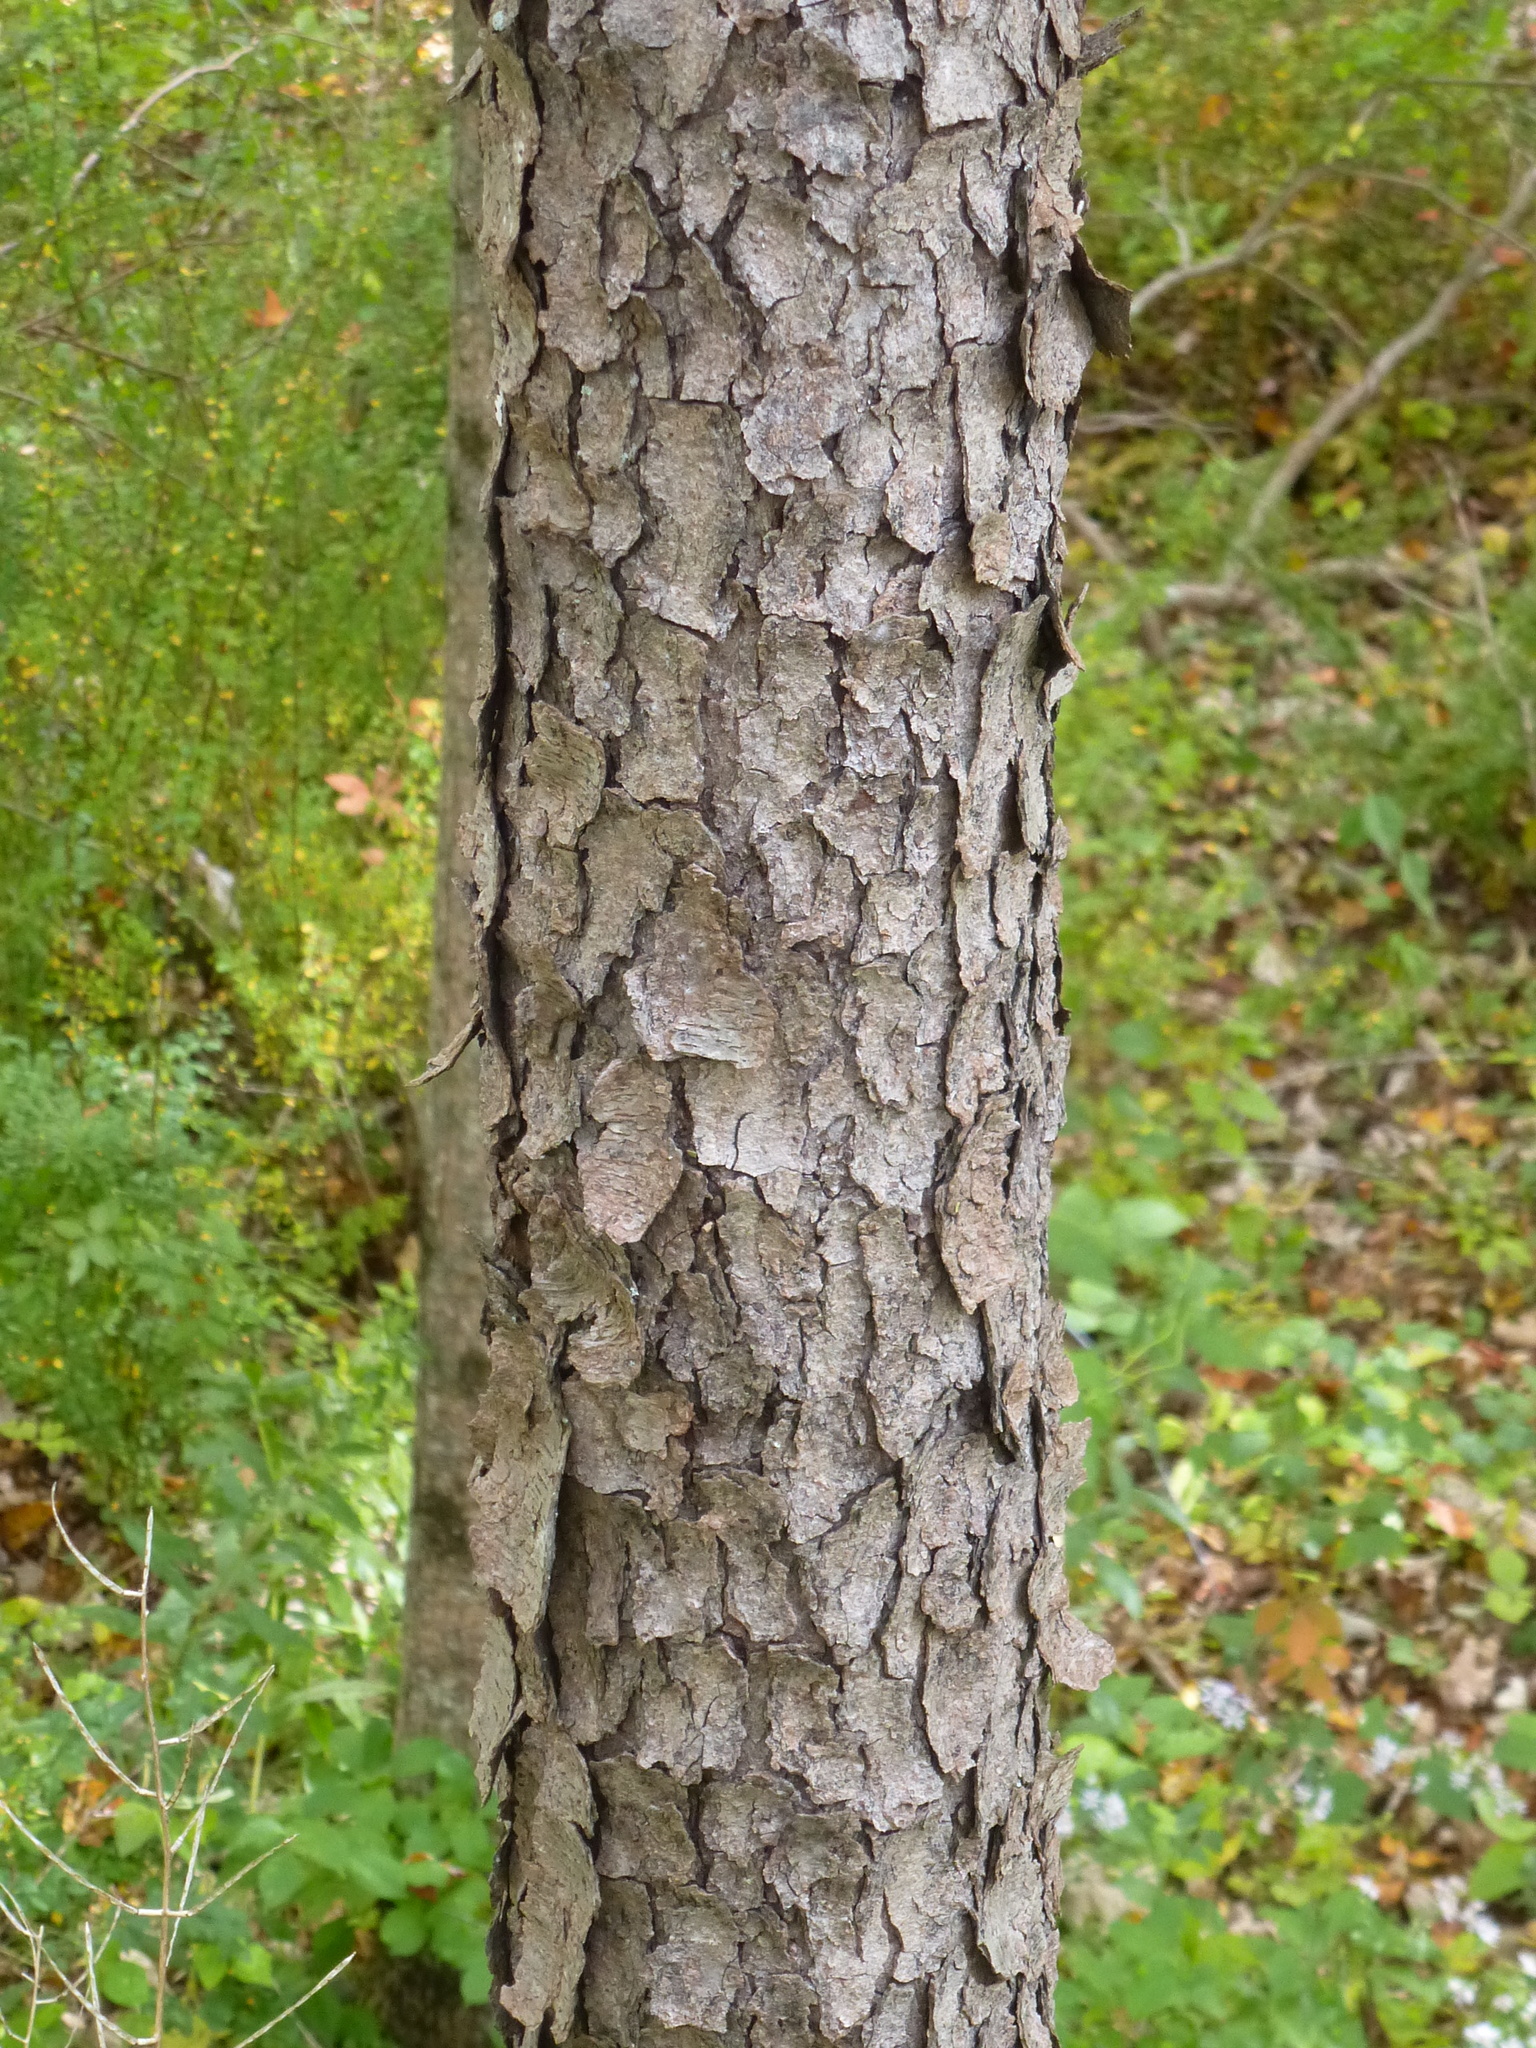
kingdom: Plantae
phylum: Tracheophyta
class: Magnoliopsida
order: Rosales
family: Rosaceae
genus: Prunus
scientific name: Prunus serotina
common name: Black cherry
